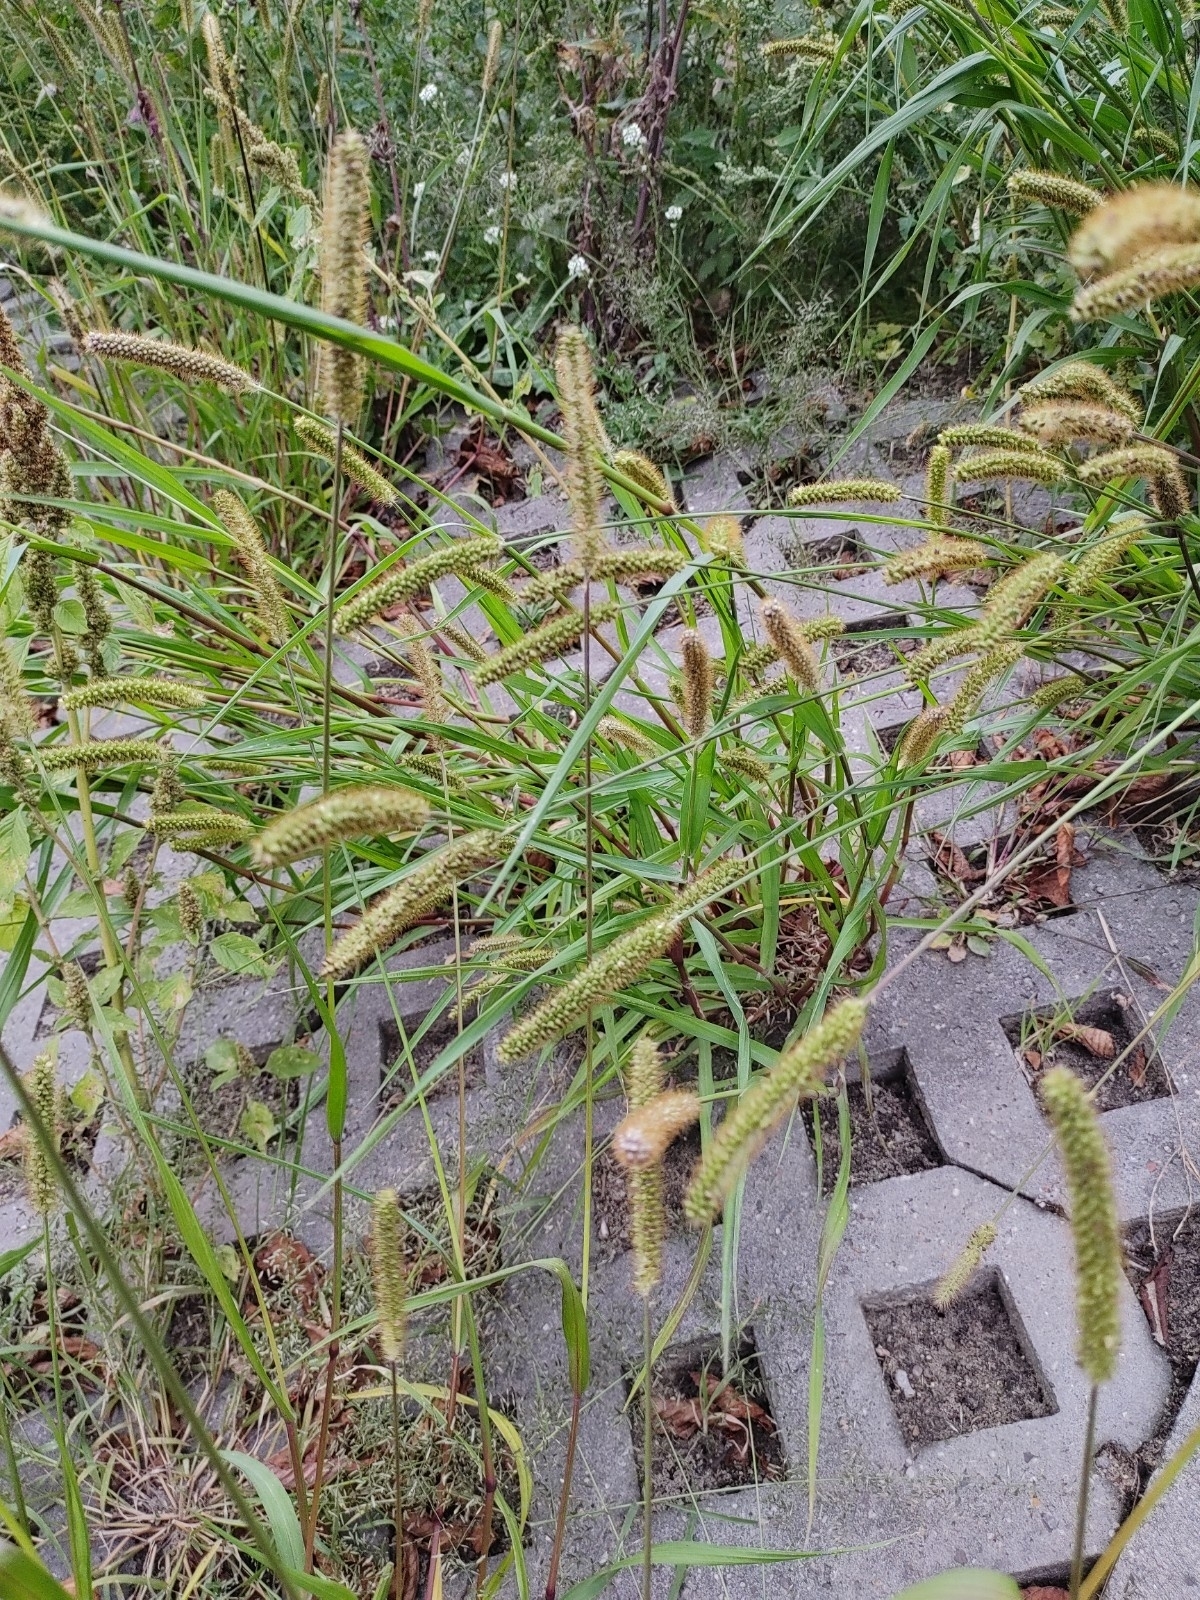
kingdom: Plantae
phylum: Tracheophyta
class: Liliopsida
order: Poales
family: Poaceae
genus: Setaria
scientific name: Setaria pumila
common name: Yellow bristle-grass
